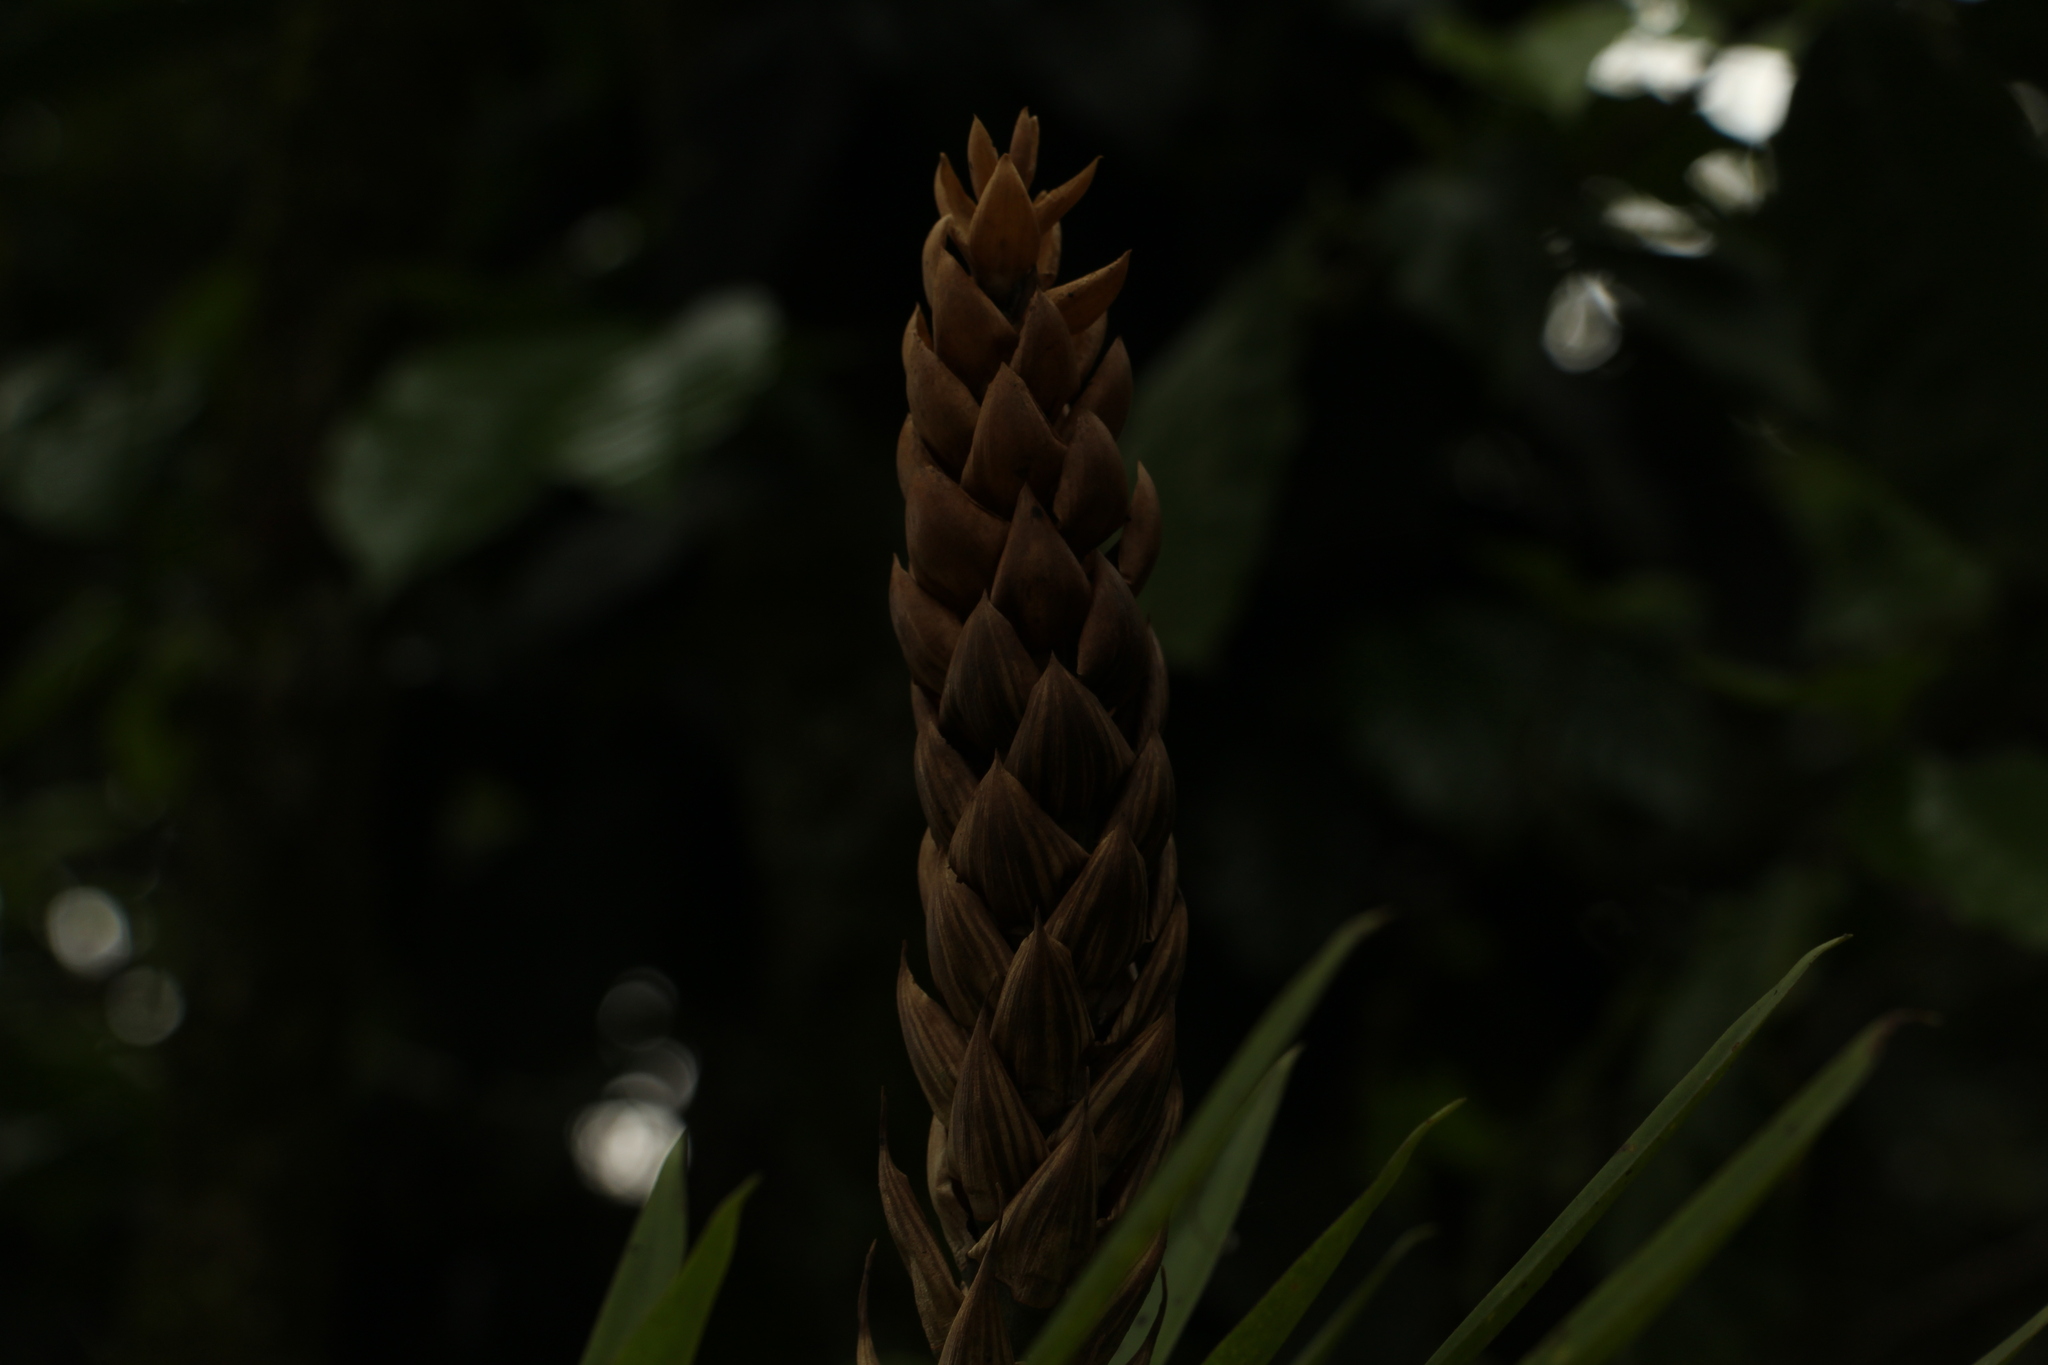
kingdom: Plantae
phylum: Tracheophyta
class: Liliopsida
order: Poales
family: Bromeliaceae
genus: Guzmania
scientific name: Guzmania monostachia
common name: West indian tufted airplant
